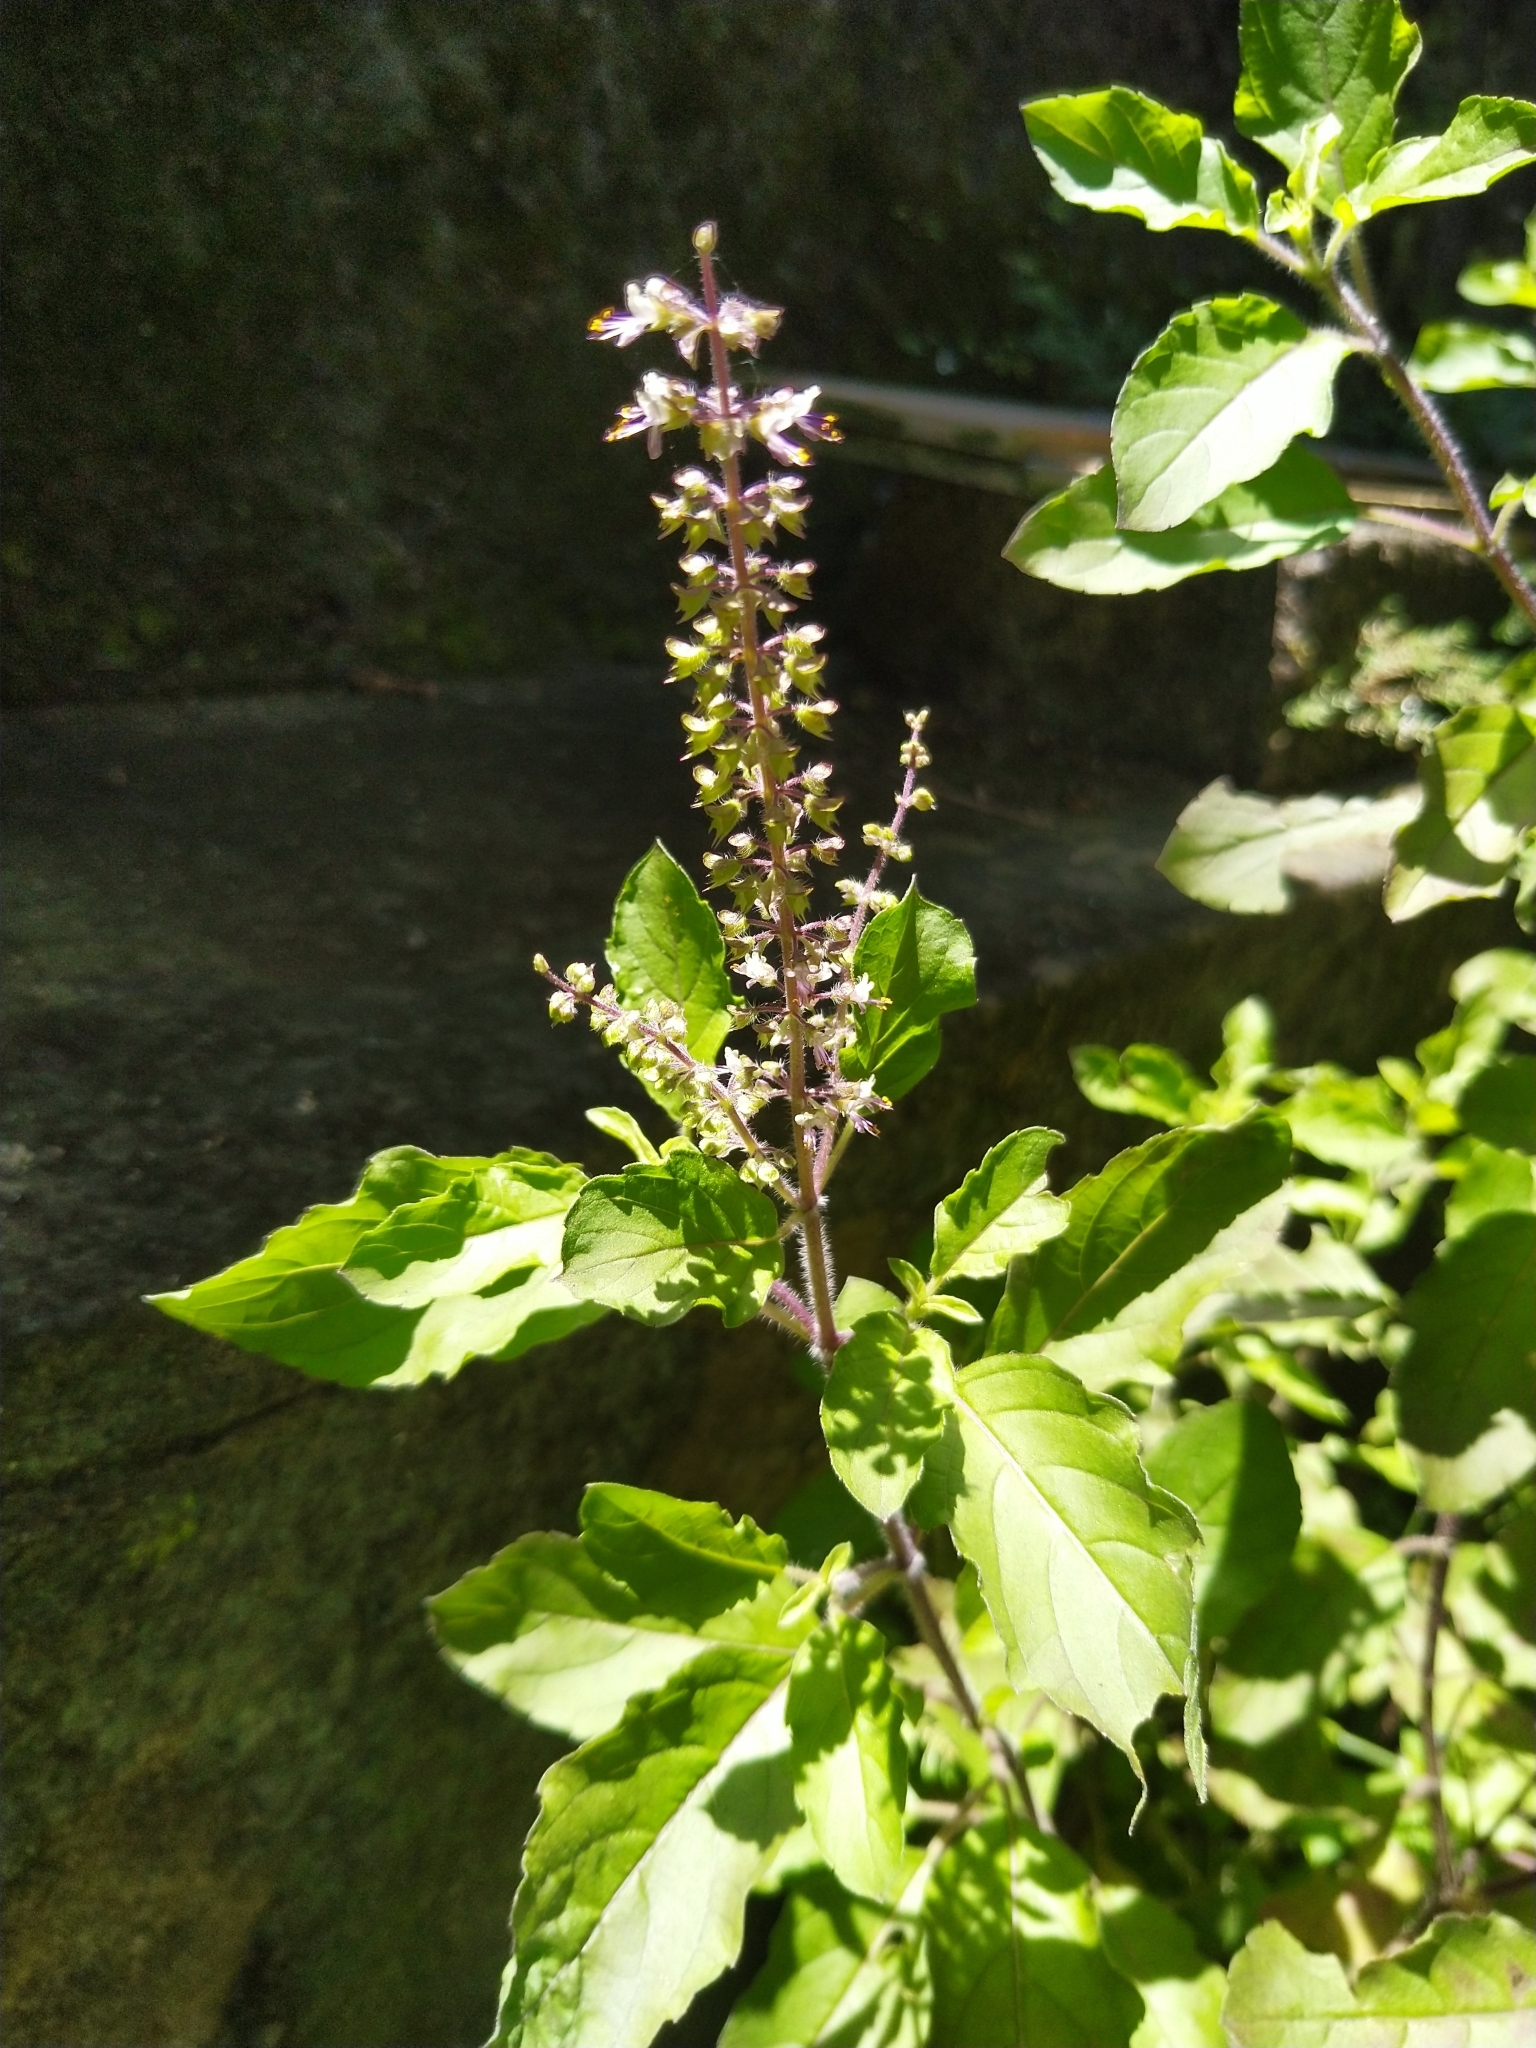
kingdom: Plantae
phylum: Tracheophyta
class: Magnoliopsida
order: Lamiales
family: Lamiaceae
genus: Ocimum
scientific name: Ocimum tenuiflorum
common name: Sacred basil
